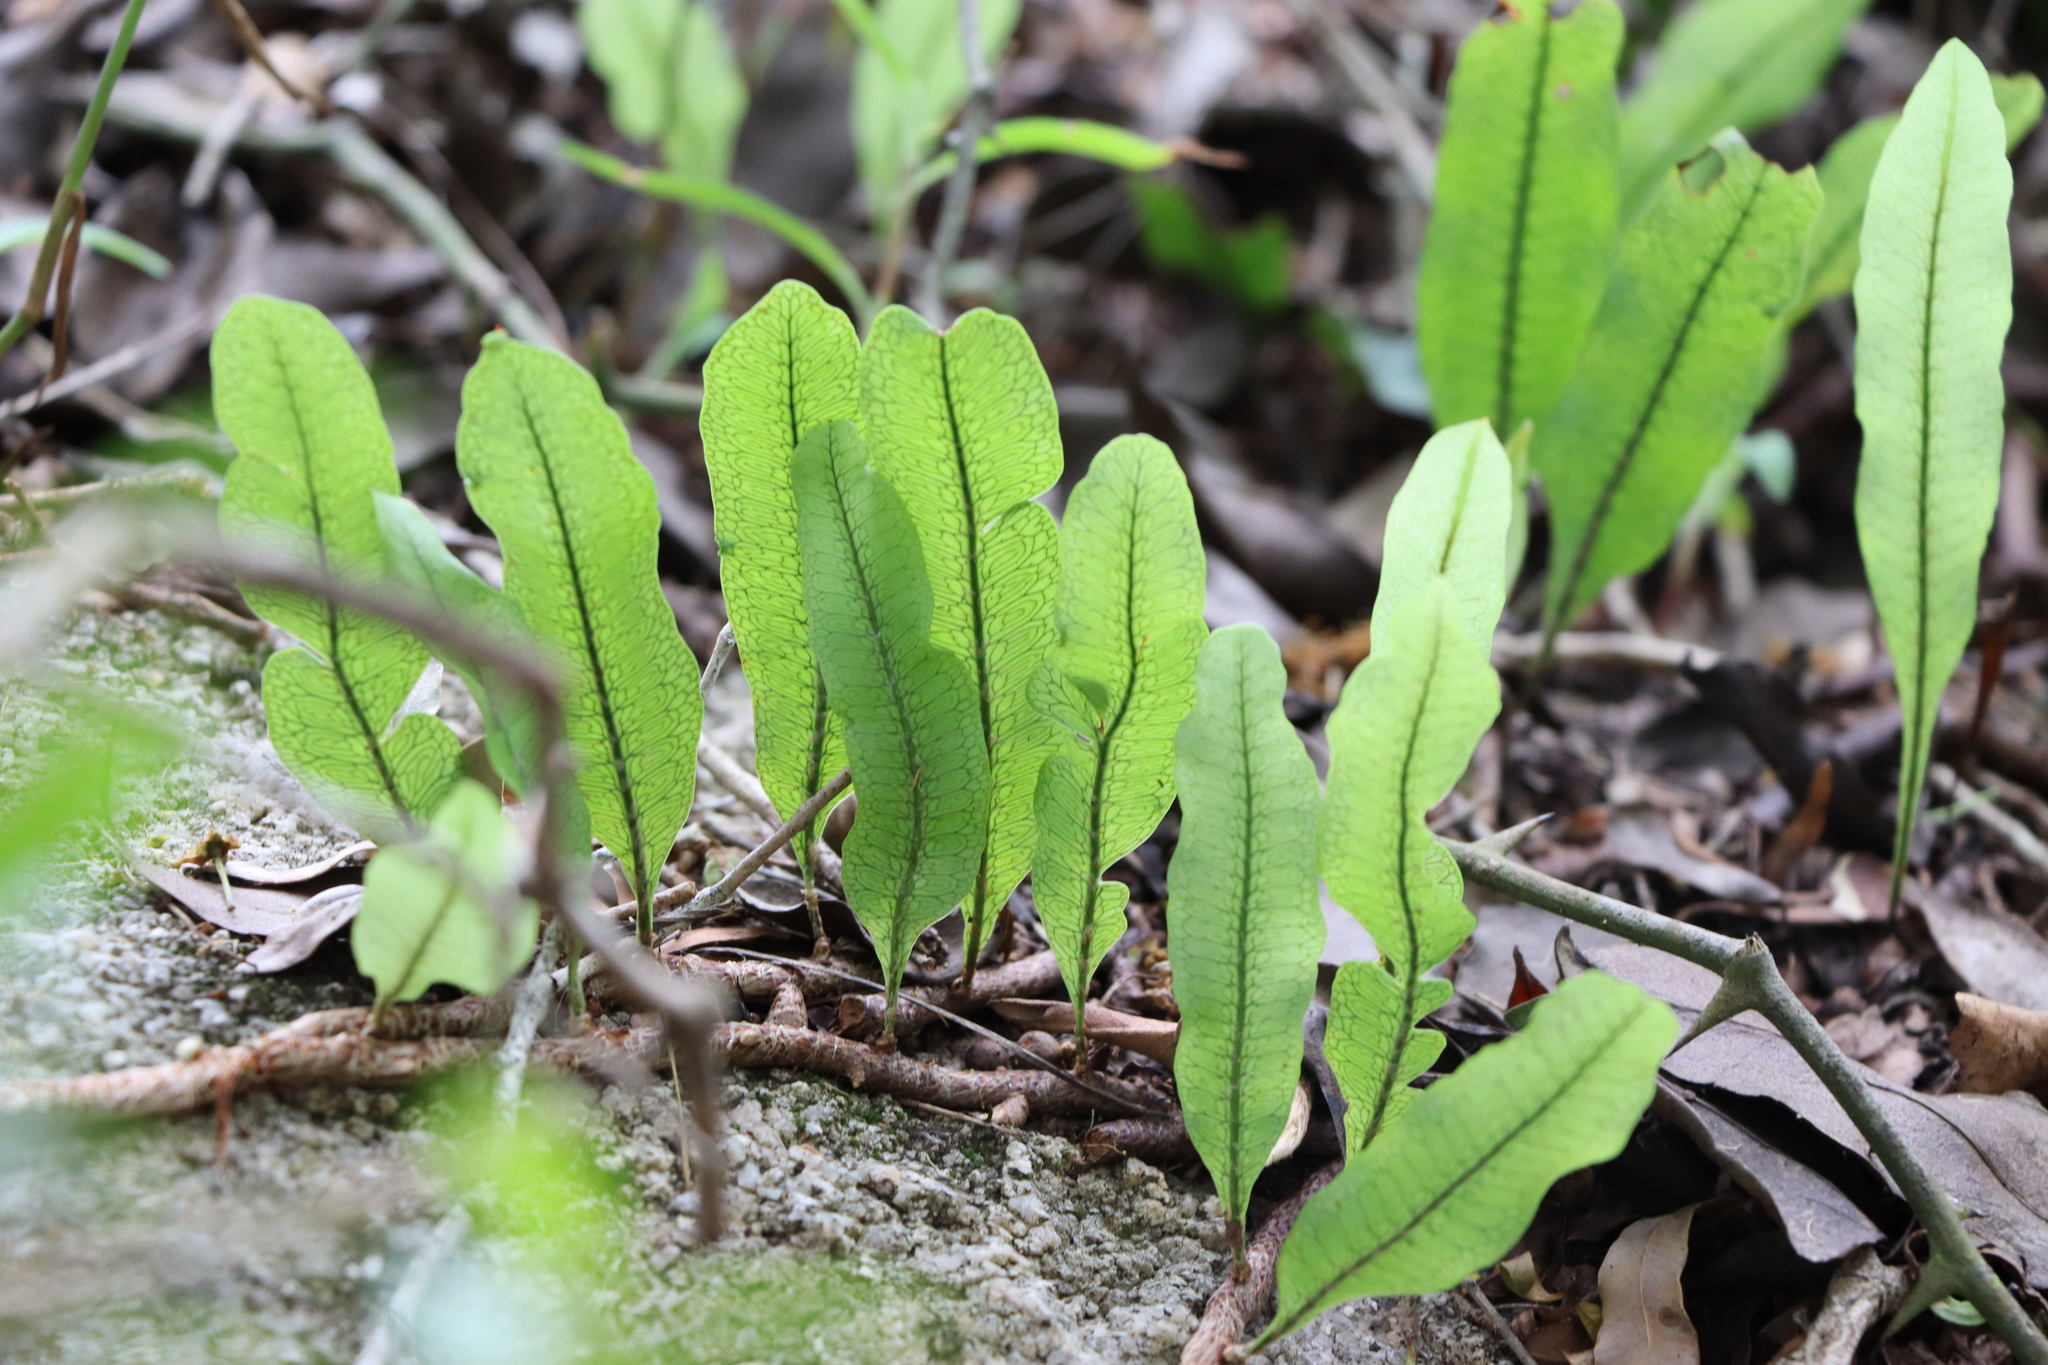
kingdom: Plantae
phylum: Tracheophyta
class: Polypodiopsida
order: Polypodiales
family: Polypodiaceae
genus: Microgramma
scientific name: Microgramma squamulosa
